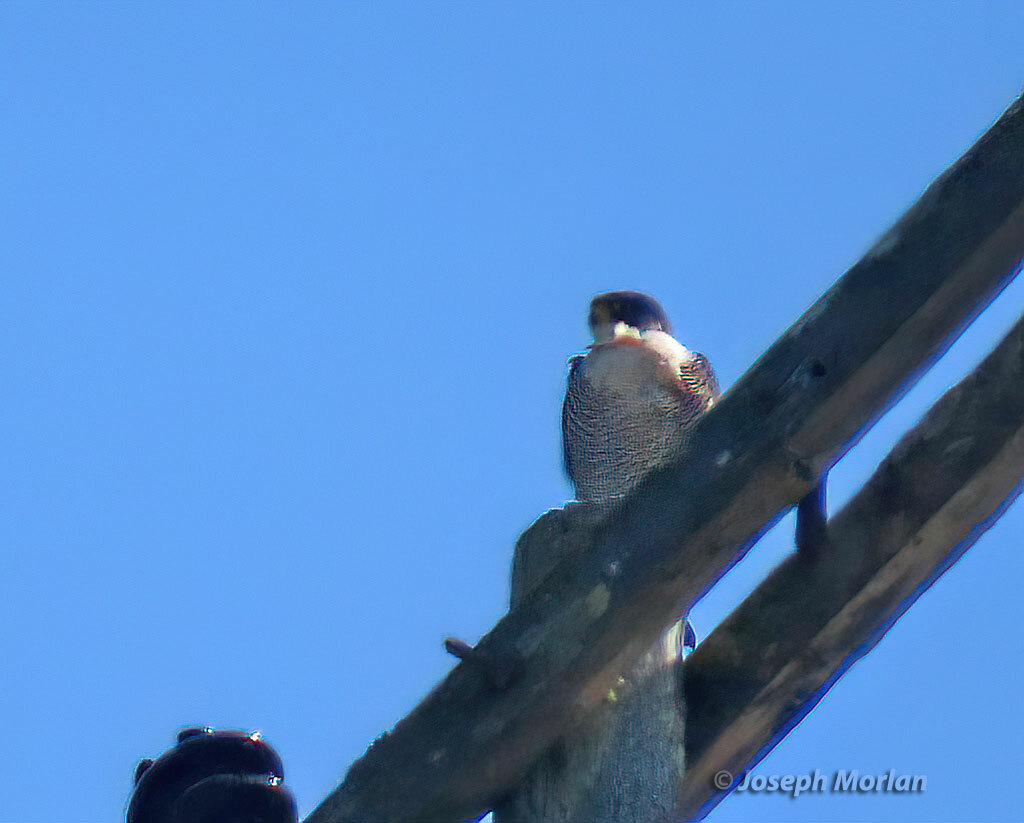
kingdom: Animalia
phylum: Chordata
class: Aves
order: Falconiformes
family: Falconidae
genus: Falco
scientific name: Falco peregrinus
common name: Peregrine falcon
